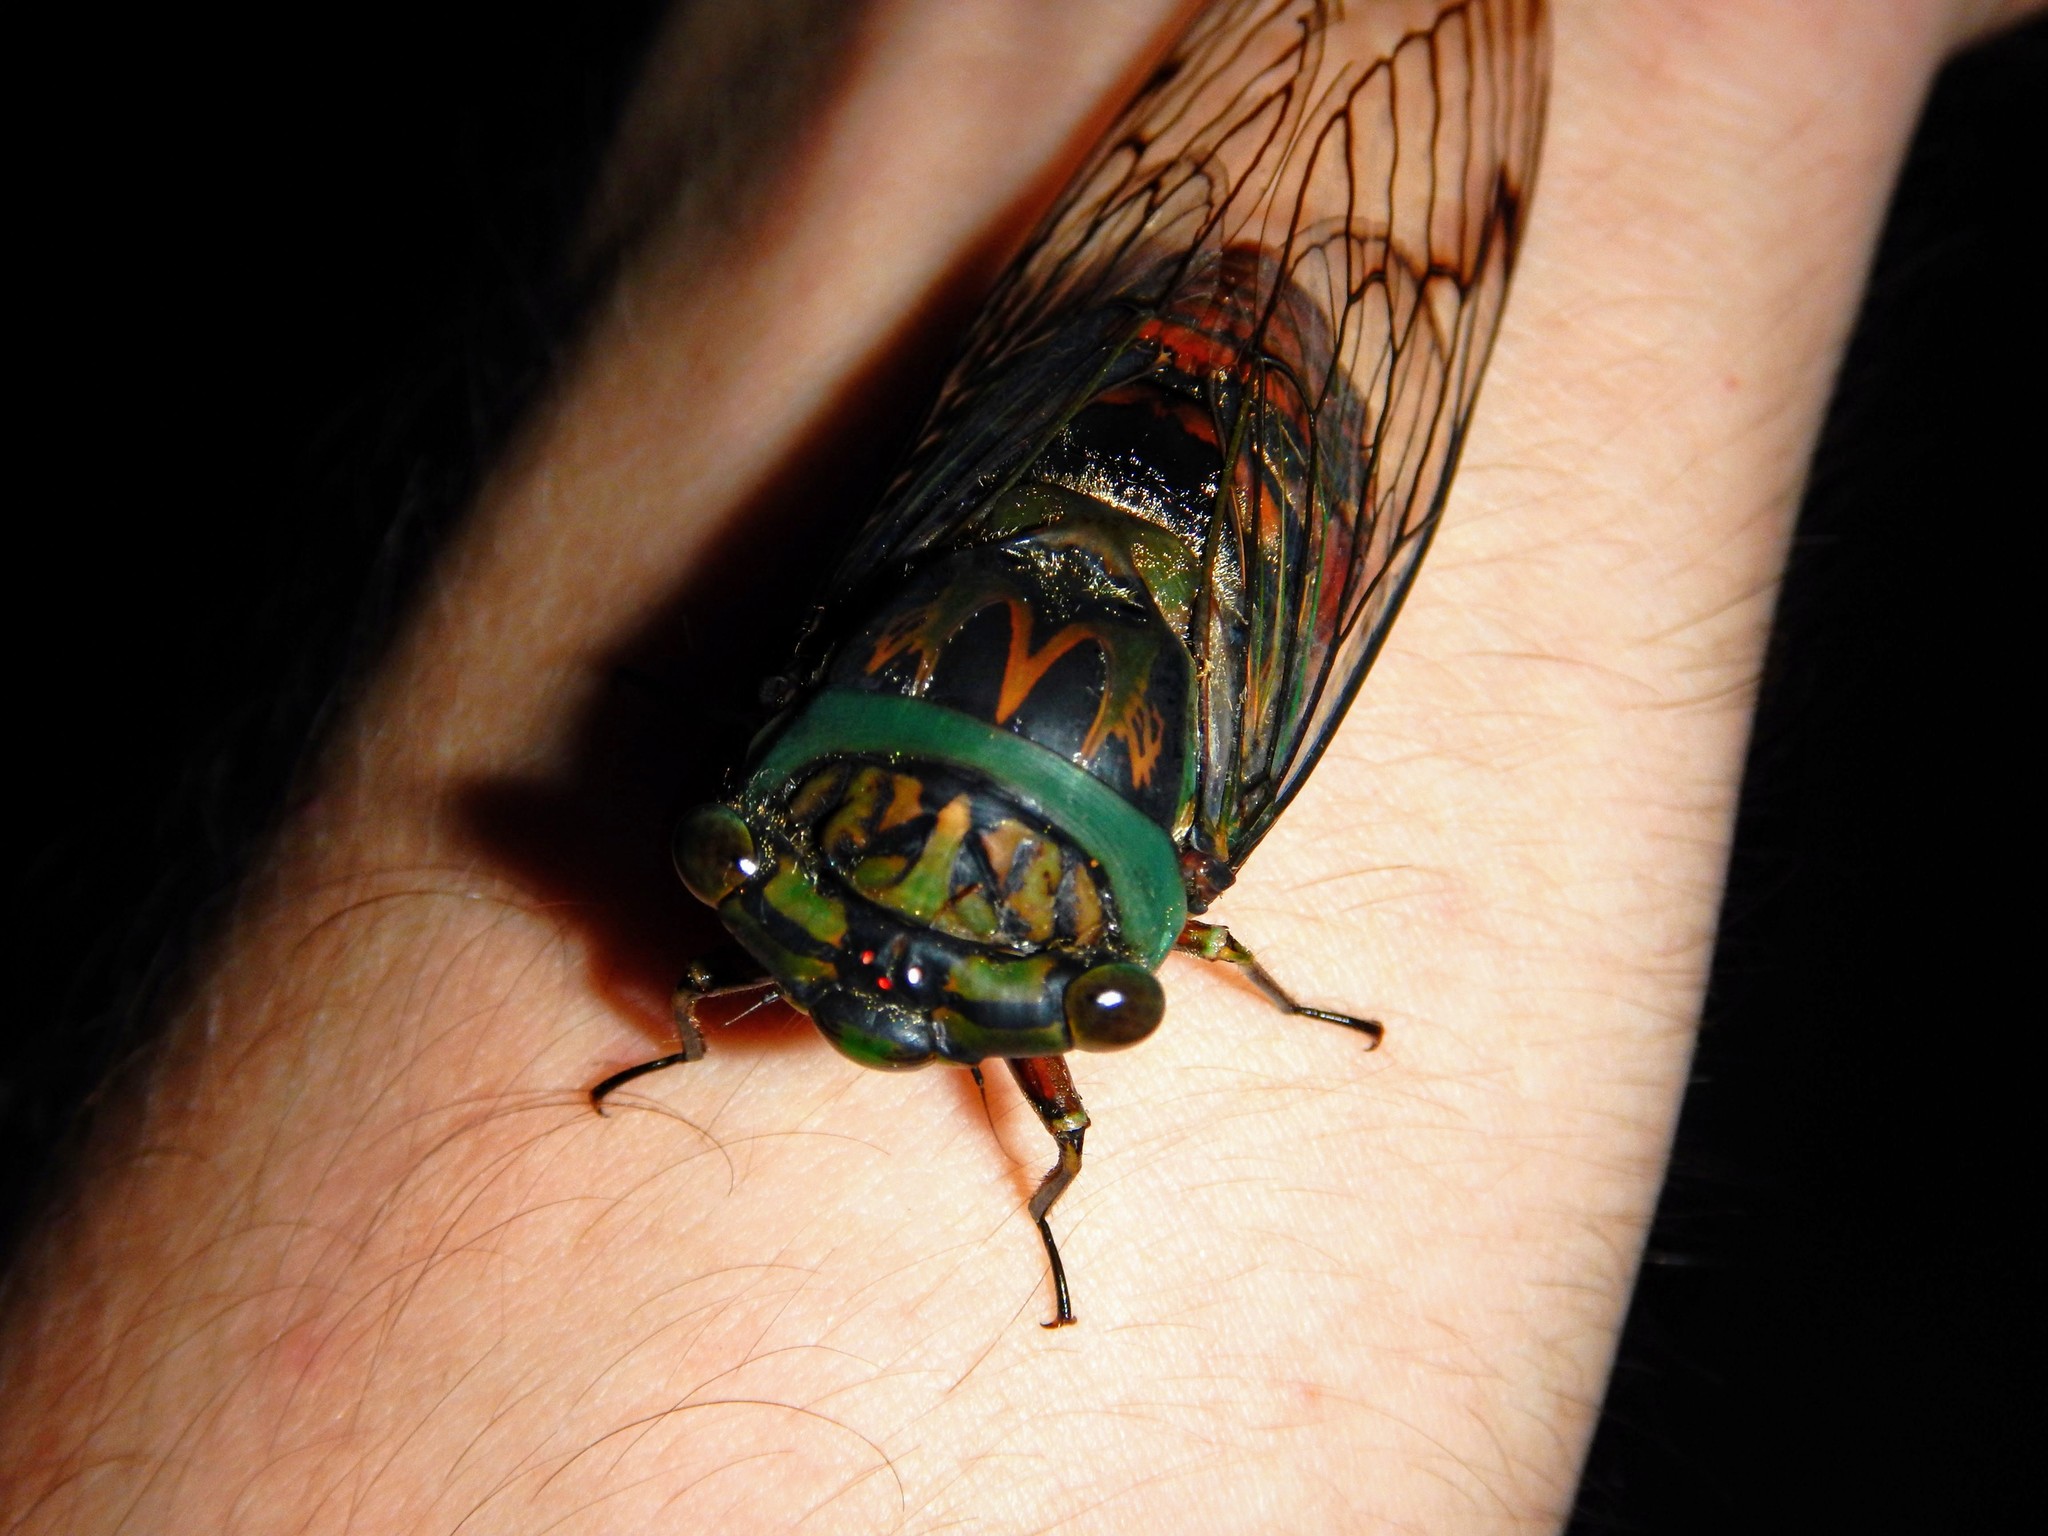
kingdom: Animalia
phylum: Arthropoda
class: Insecta
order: Hemiptera
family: Cicadidae
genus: Psaltoda
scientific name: Psaltoda magnifica
